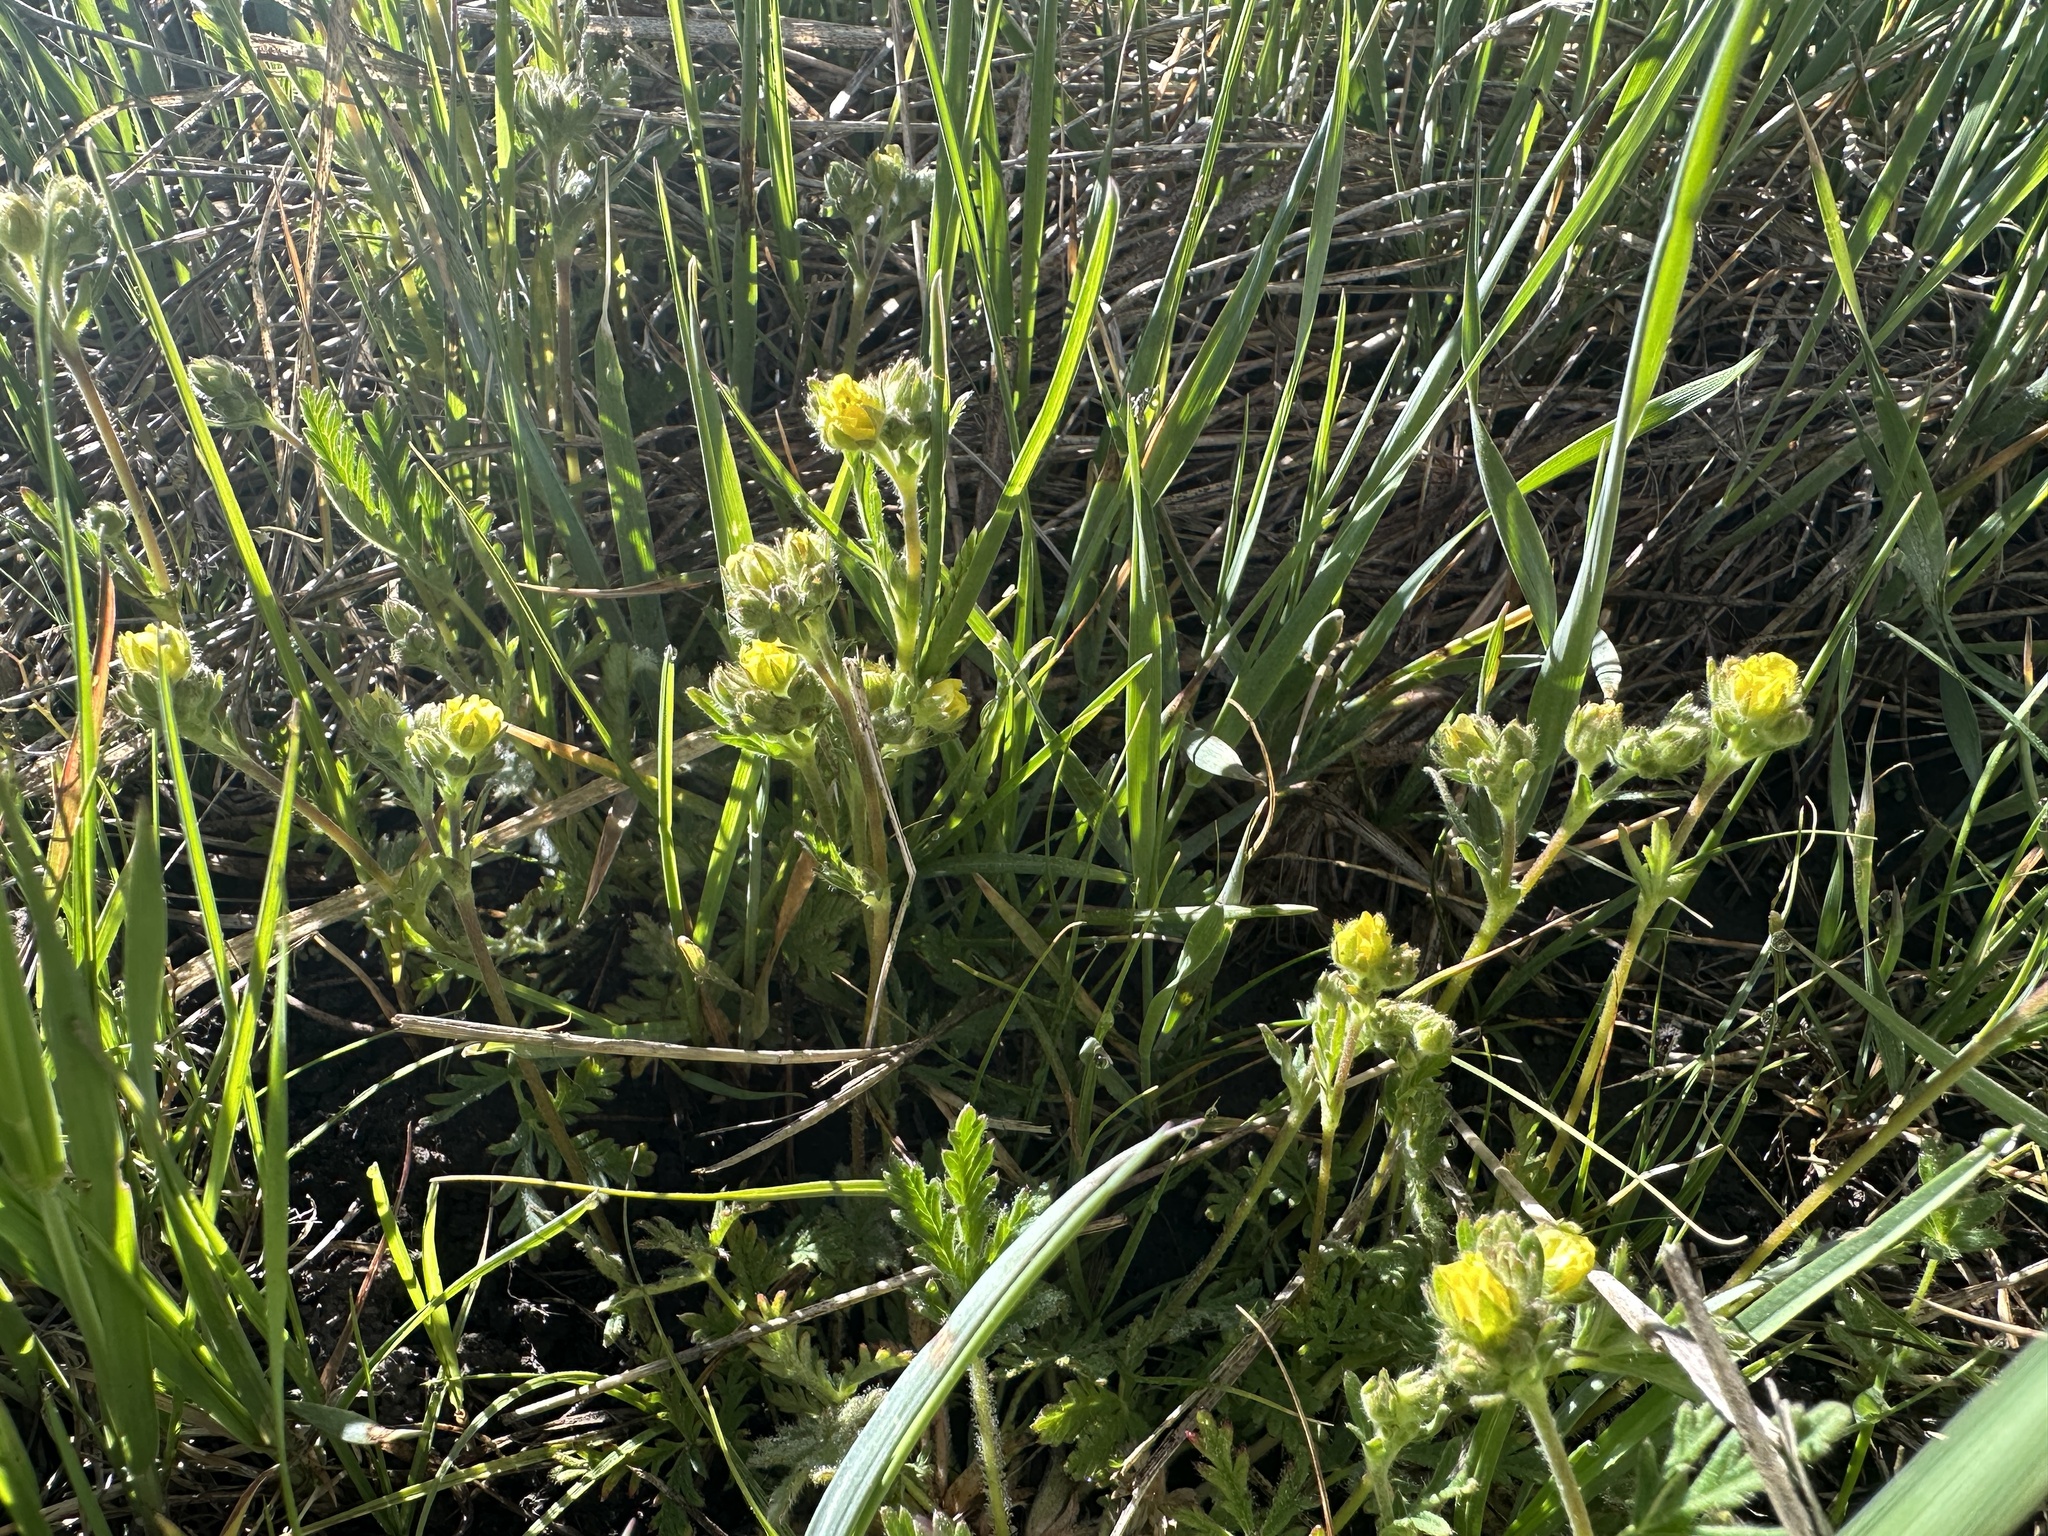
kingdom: Plantae
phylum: Tracheophyta
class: Magnoliopsida
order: Rosales
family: Rosaceae
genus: Potentilla
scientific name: Potentilla jepsonii
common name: Jepson's cinquefoil
